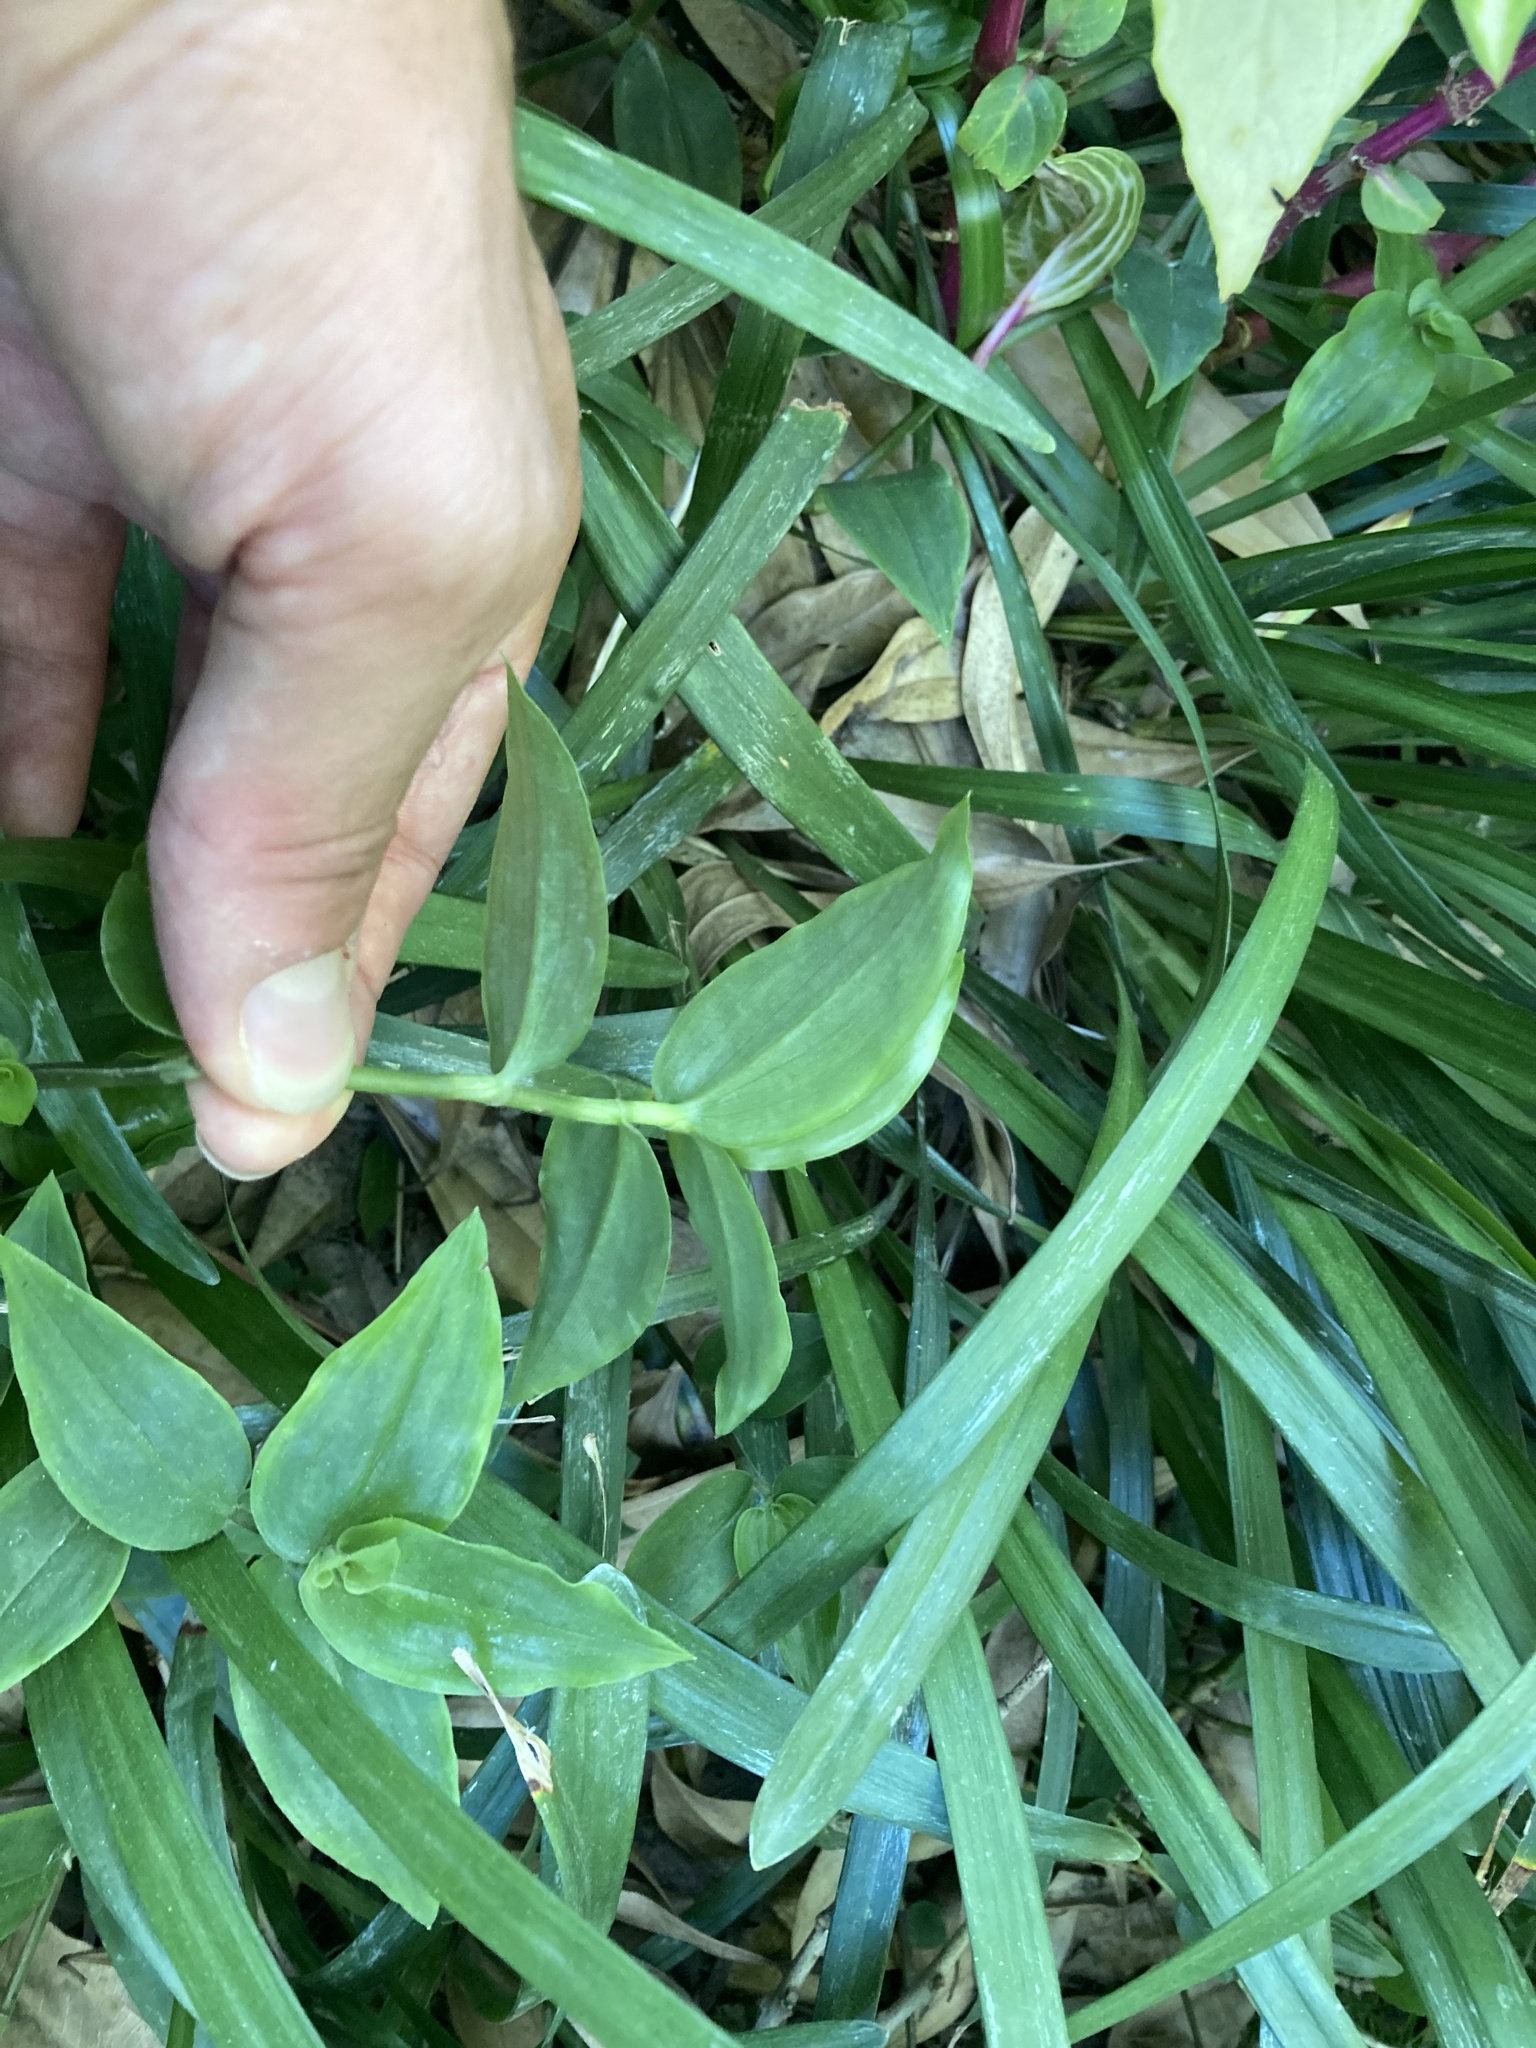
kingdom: Plantae
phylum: Tracheophyta
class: Liliopsida
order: Commelinales
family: Commelinaceae
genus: Tradescantia
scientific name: Tradescantia fluminensis
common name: Wandering-jew
